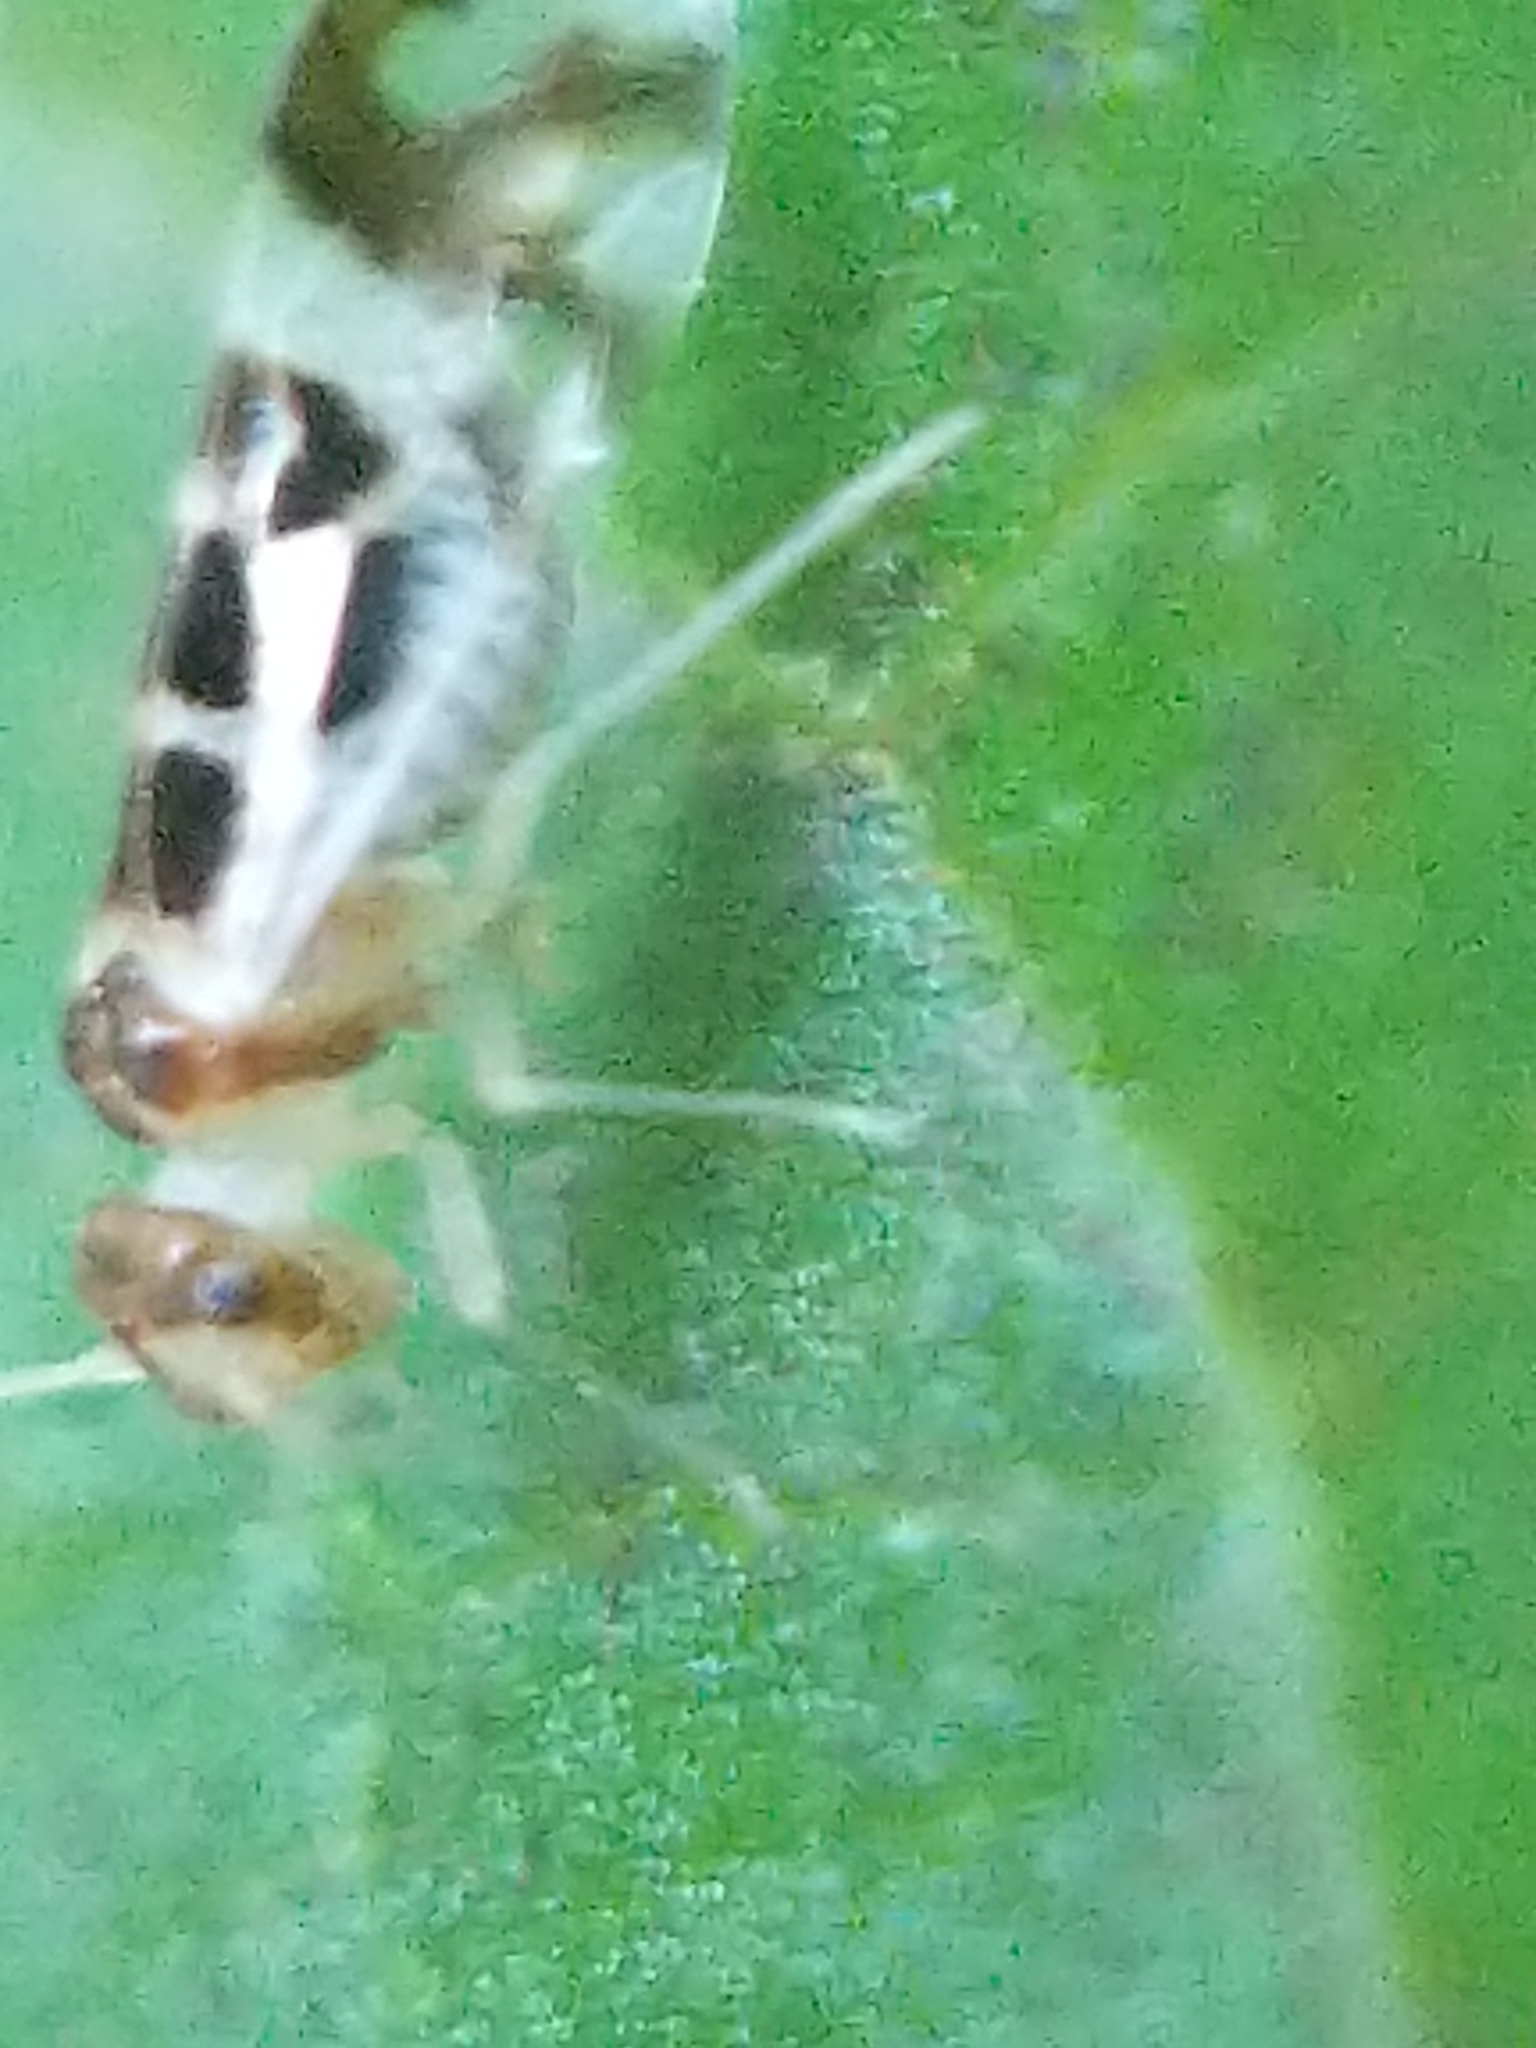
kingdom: Animalia
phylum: Arthropoda
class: Insecta
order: Psocodea
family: Stenopsocidae
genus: Graphopsocus
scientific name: Graphopsocus cruciatus
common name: Lizard bark louse
